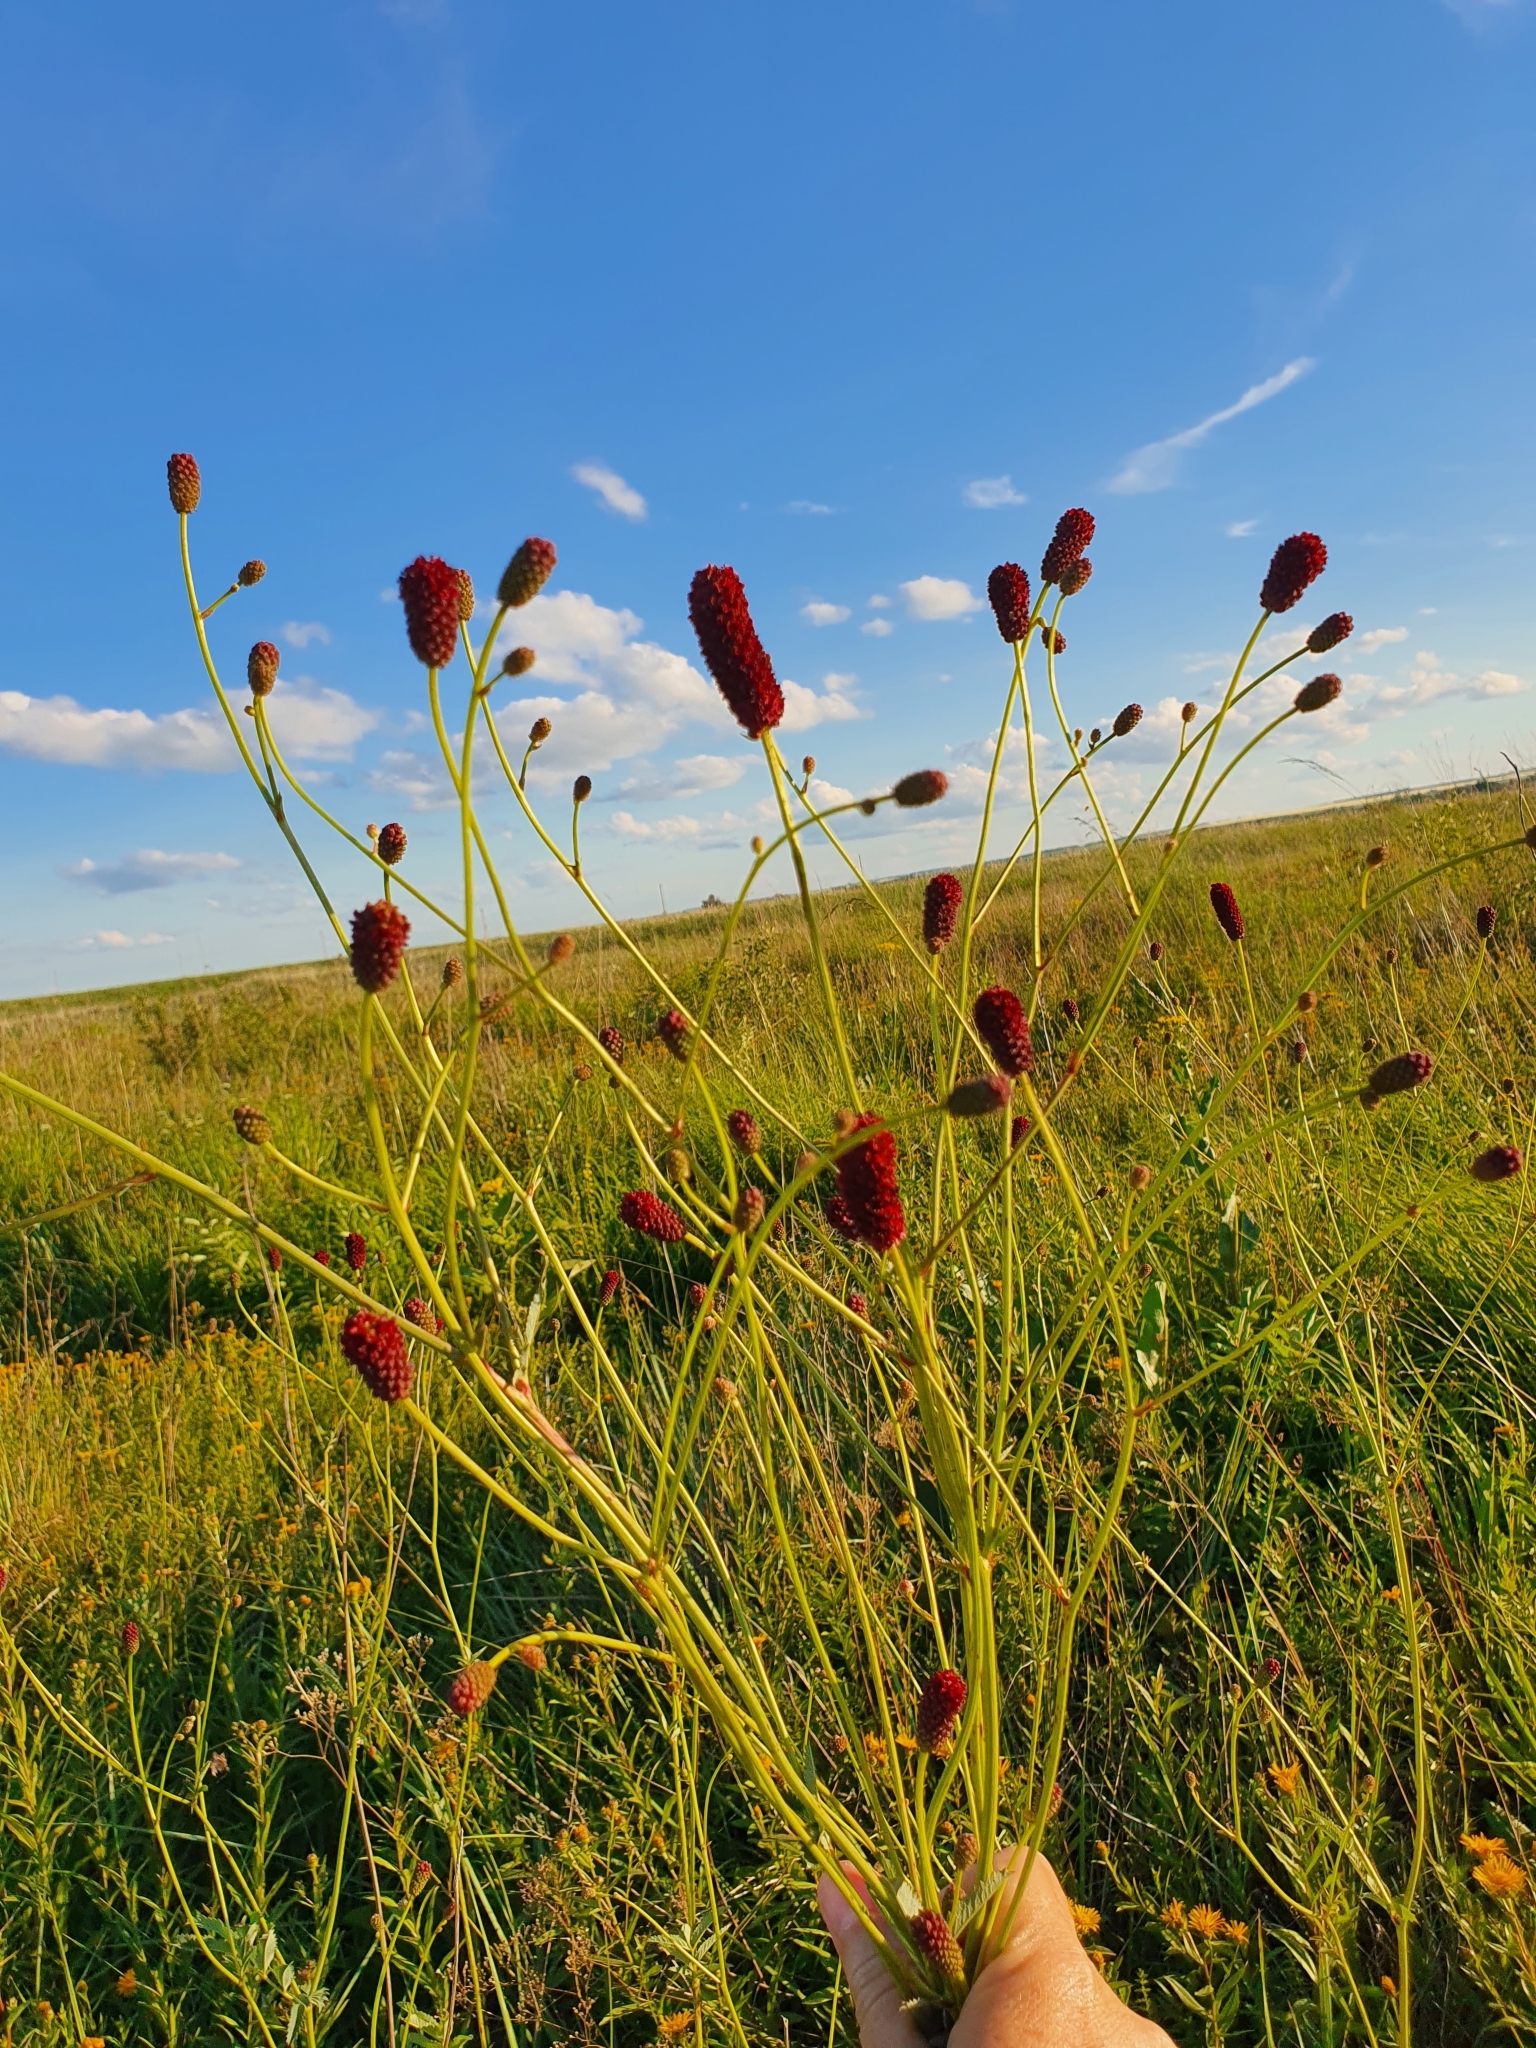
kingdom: Plantae
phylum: Tracheophyta
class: Magnoliopsida
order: Rosales
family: Rosaceae
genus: Sanguisorba
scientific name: Sanguisorba officinalis
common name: Great burnet
